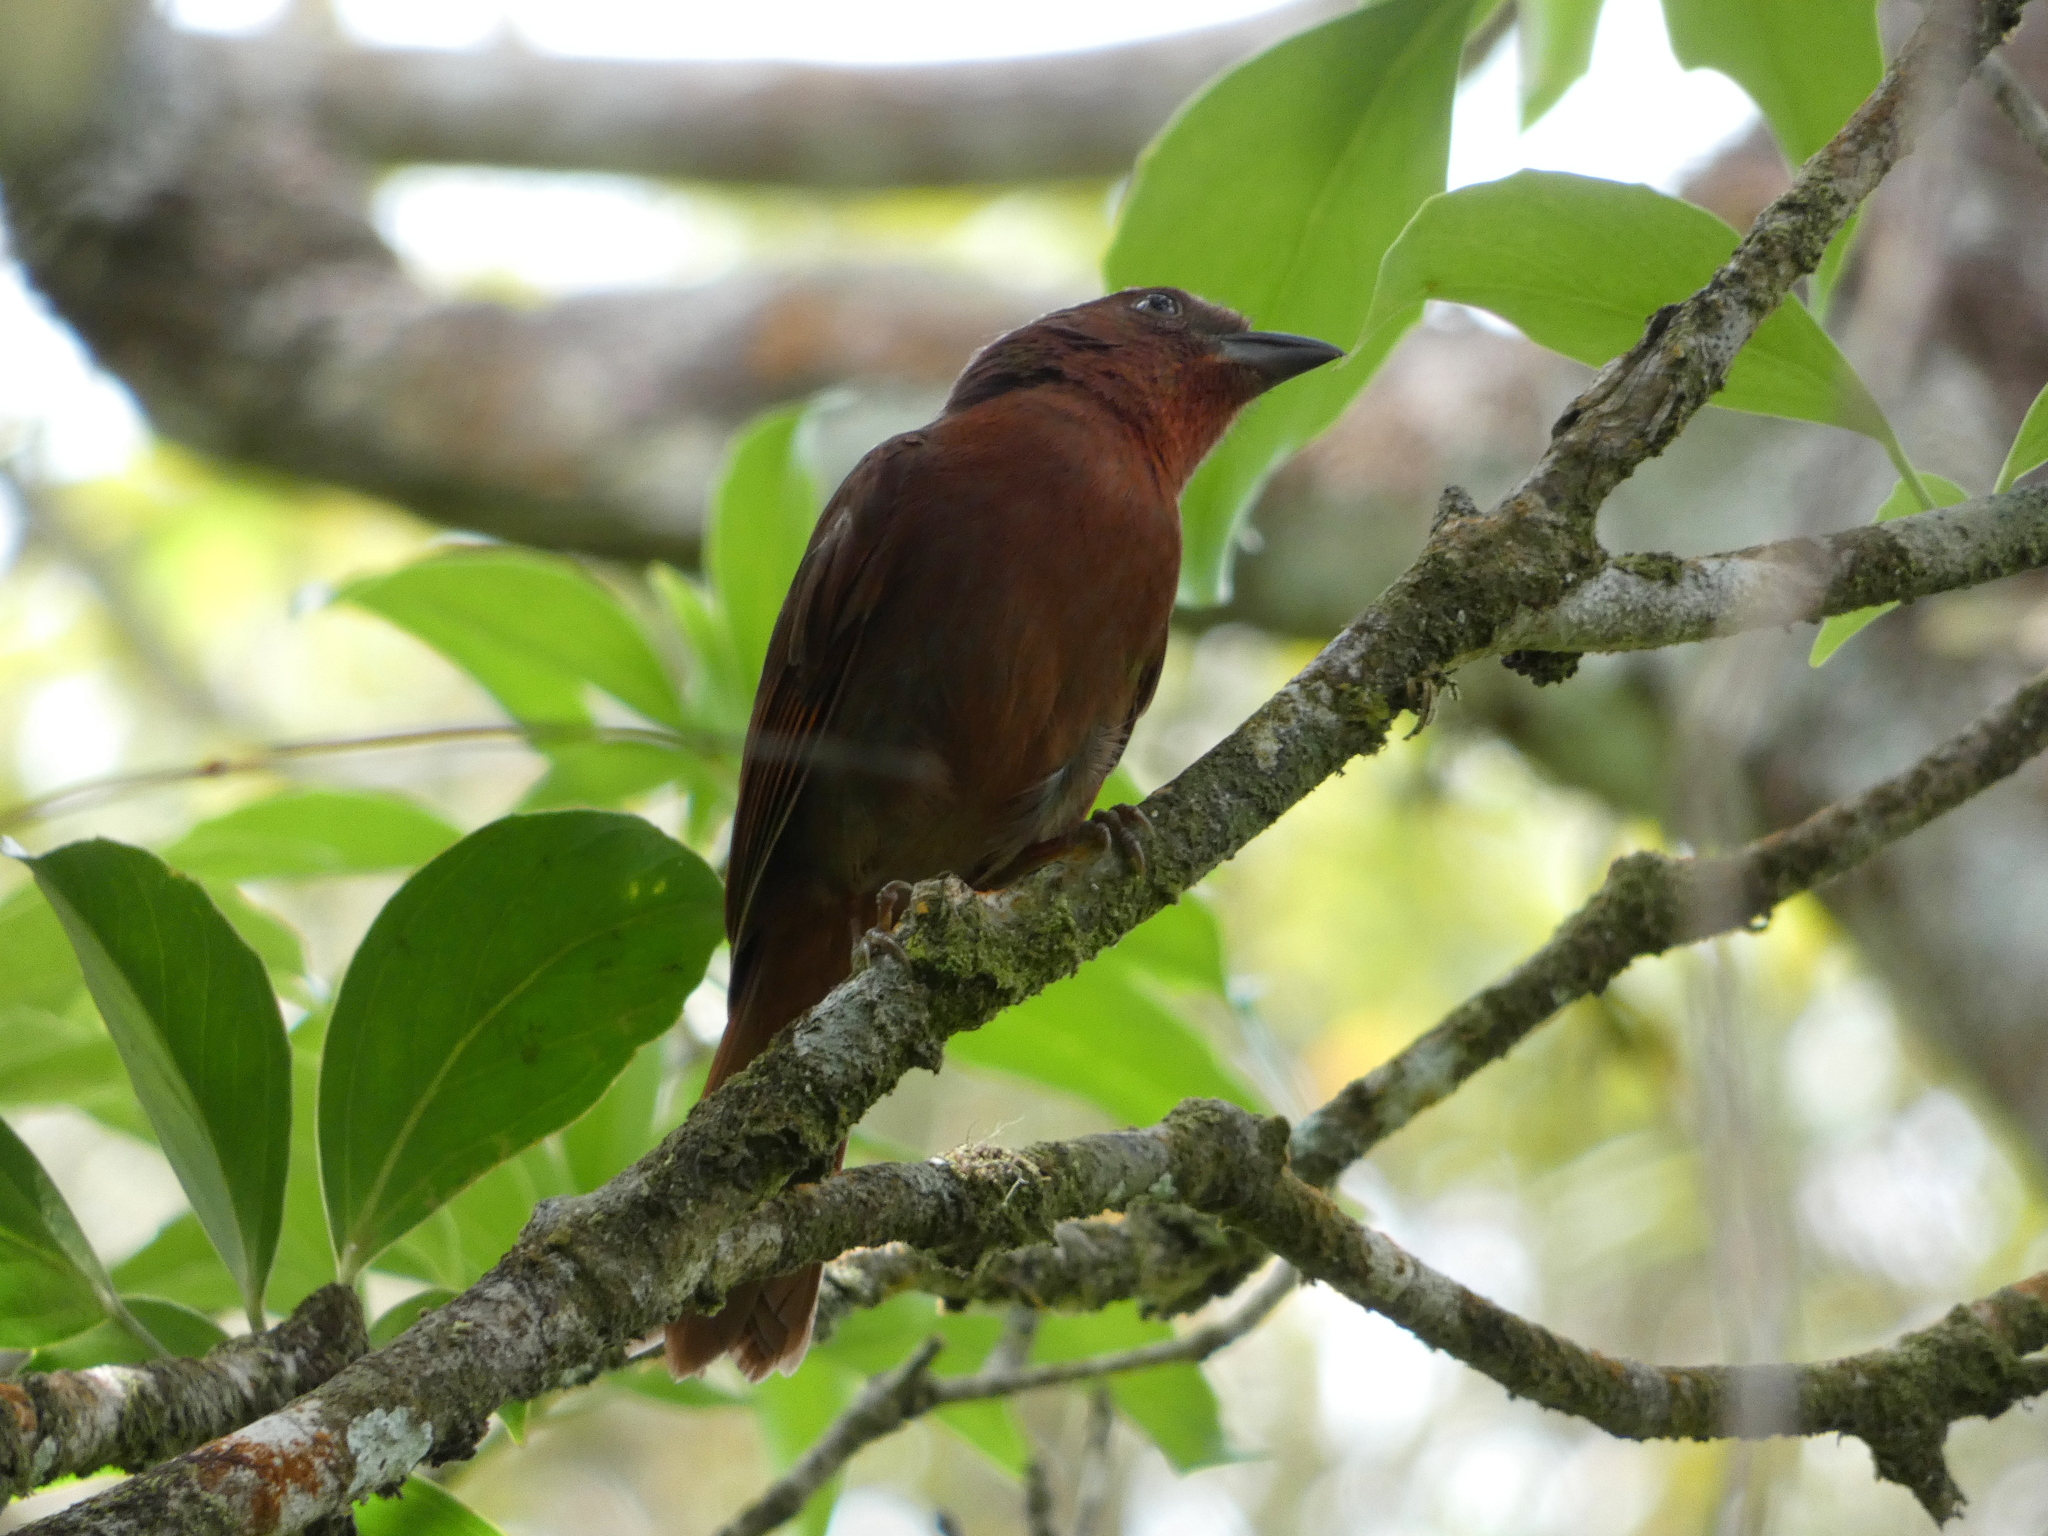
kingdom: Animalia
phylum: Chordata
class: Aves
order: Passeriformes
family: Cardinalidae
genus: Habia
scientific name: Habia fuscicauda
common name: Red-throated ant-tanager
